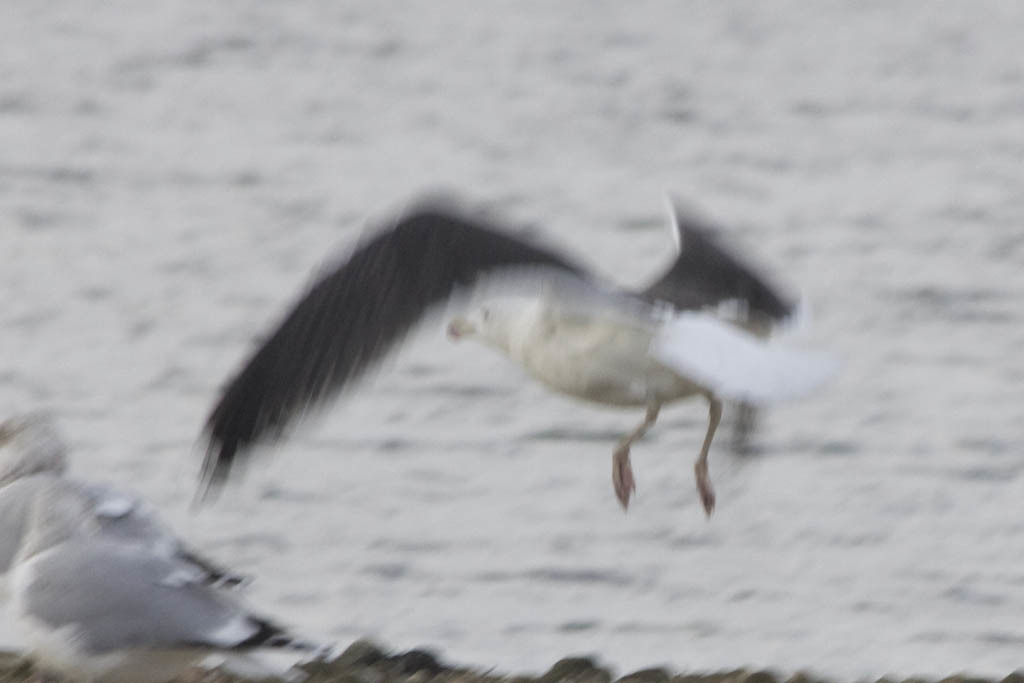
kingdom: Animalia
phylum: Chordata
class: Aves
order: Charadriiformes
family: Laridae
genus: Larus
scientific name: Larus marinus
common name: Great black-backed gull
